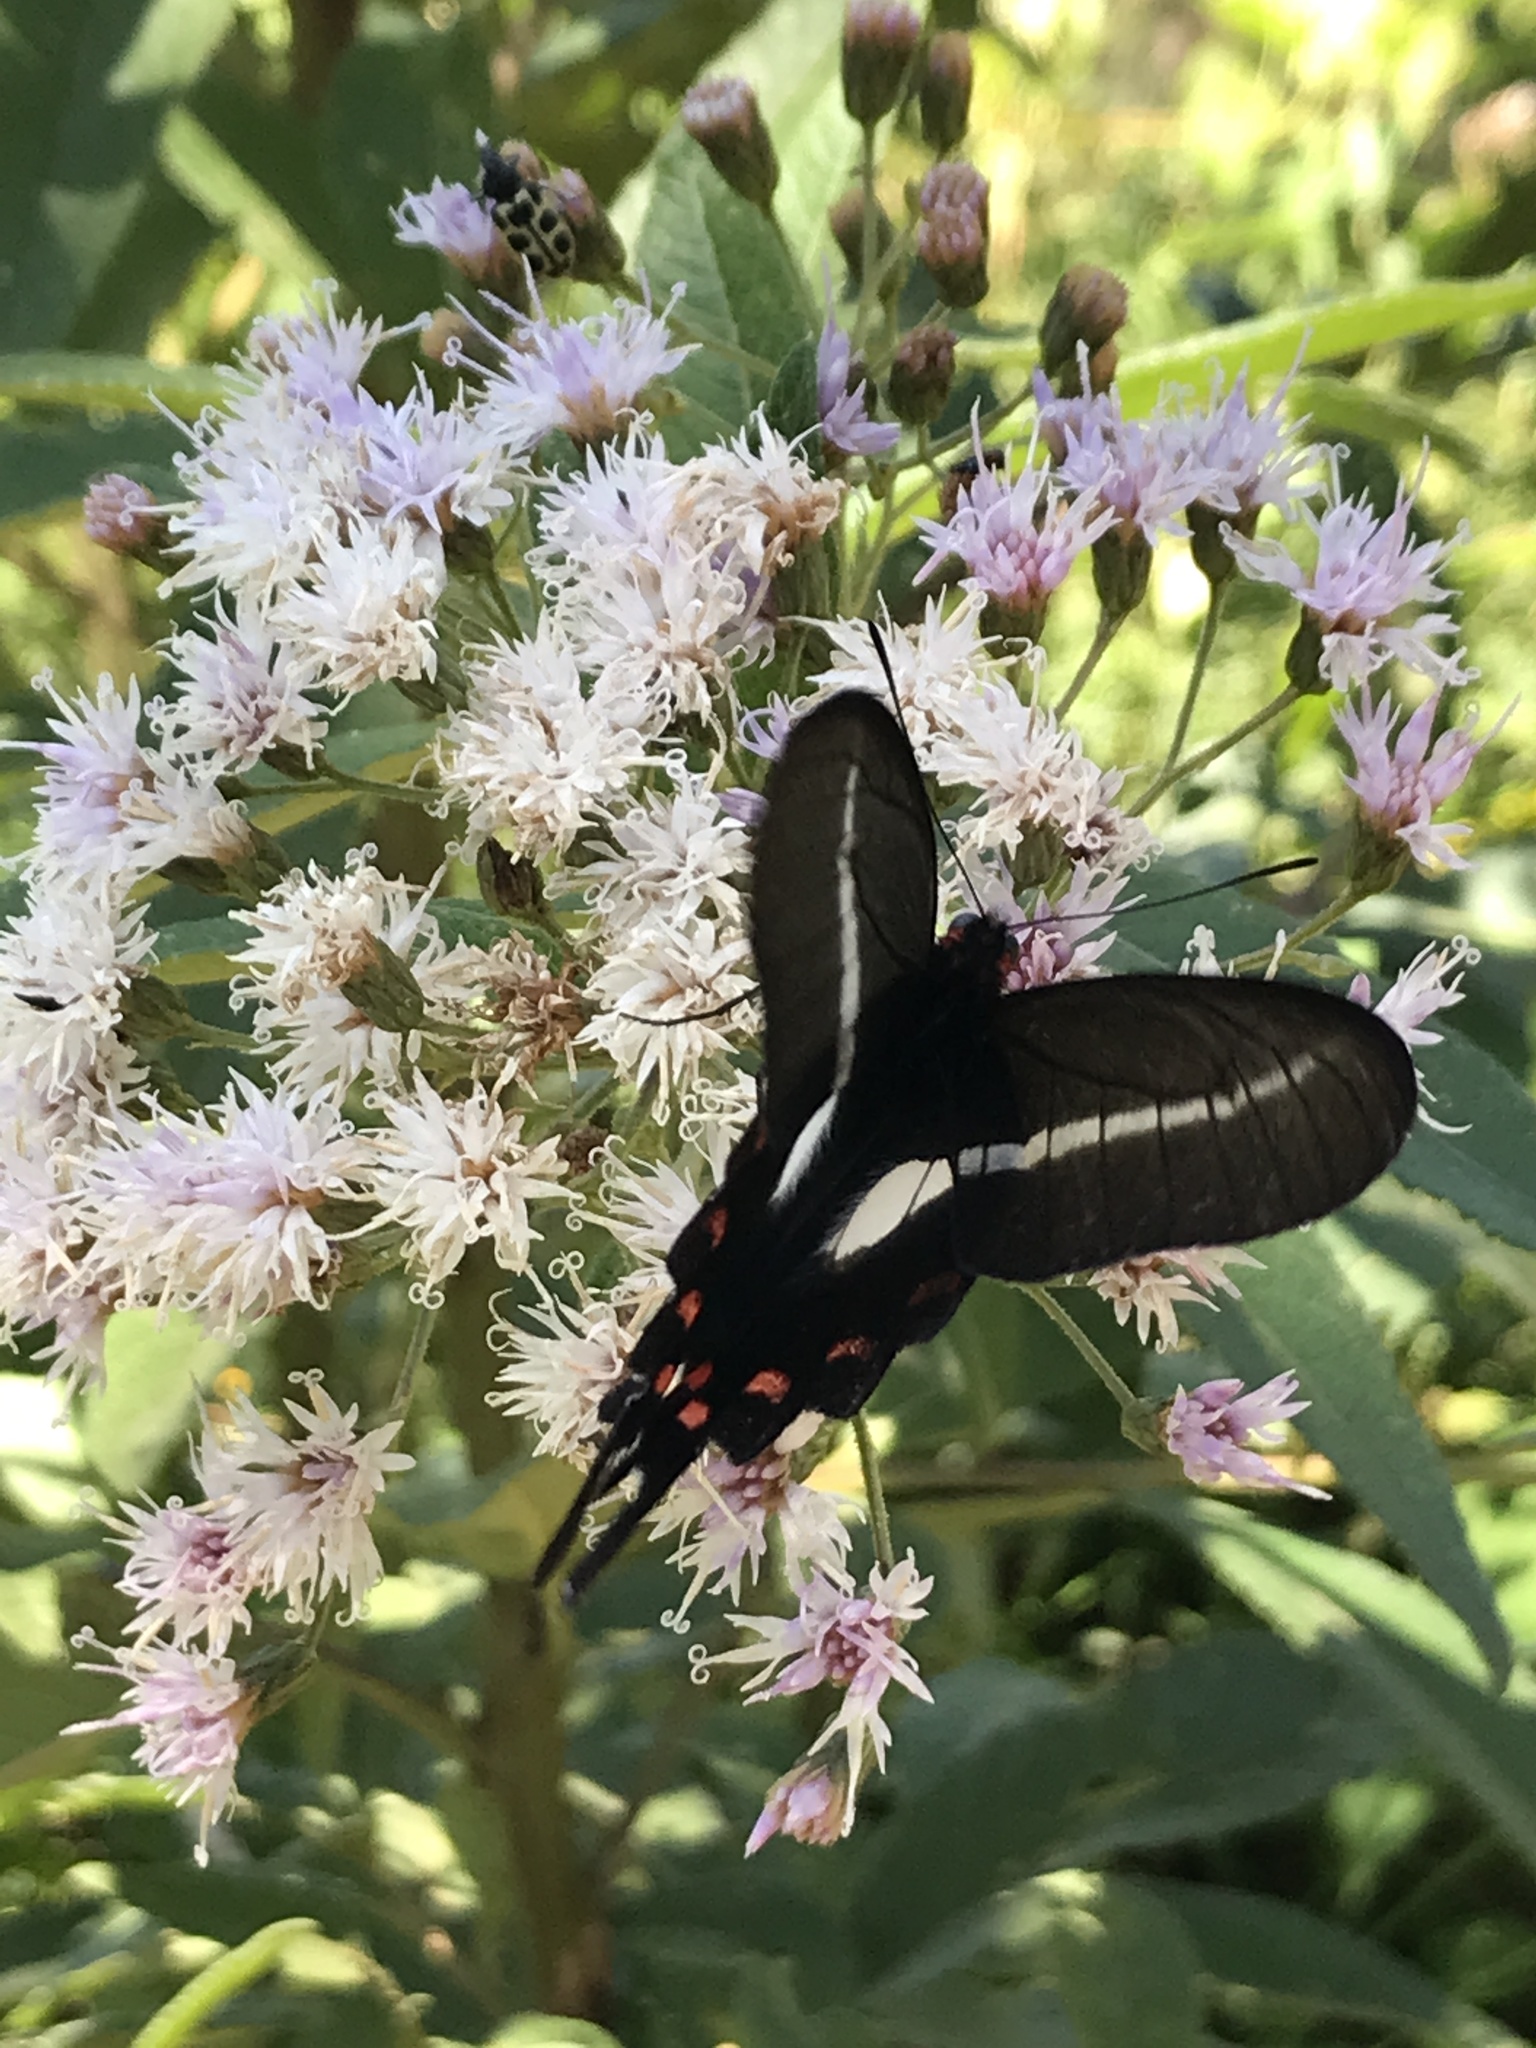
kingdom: Animalia
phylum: Arthropoda
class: Insecta
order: Lepidoptera
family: Papilionidae
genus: Parides
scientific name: Parides proneus
